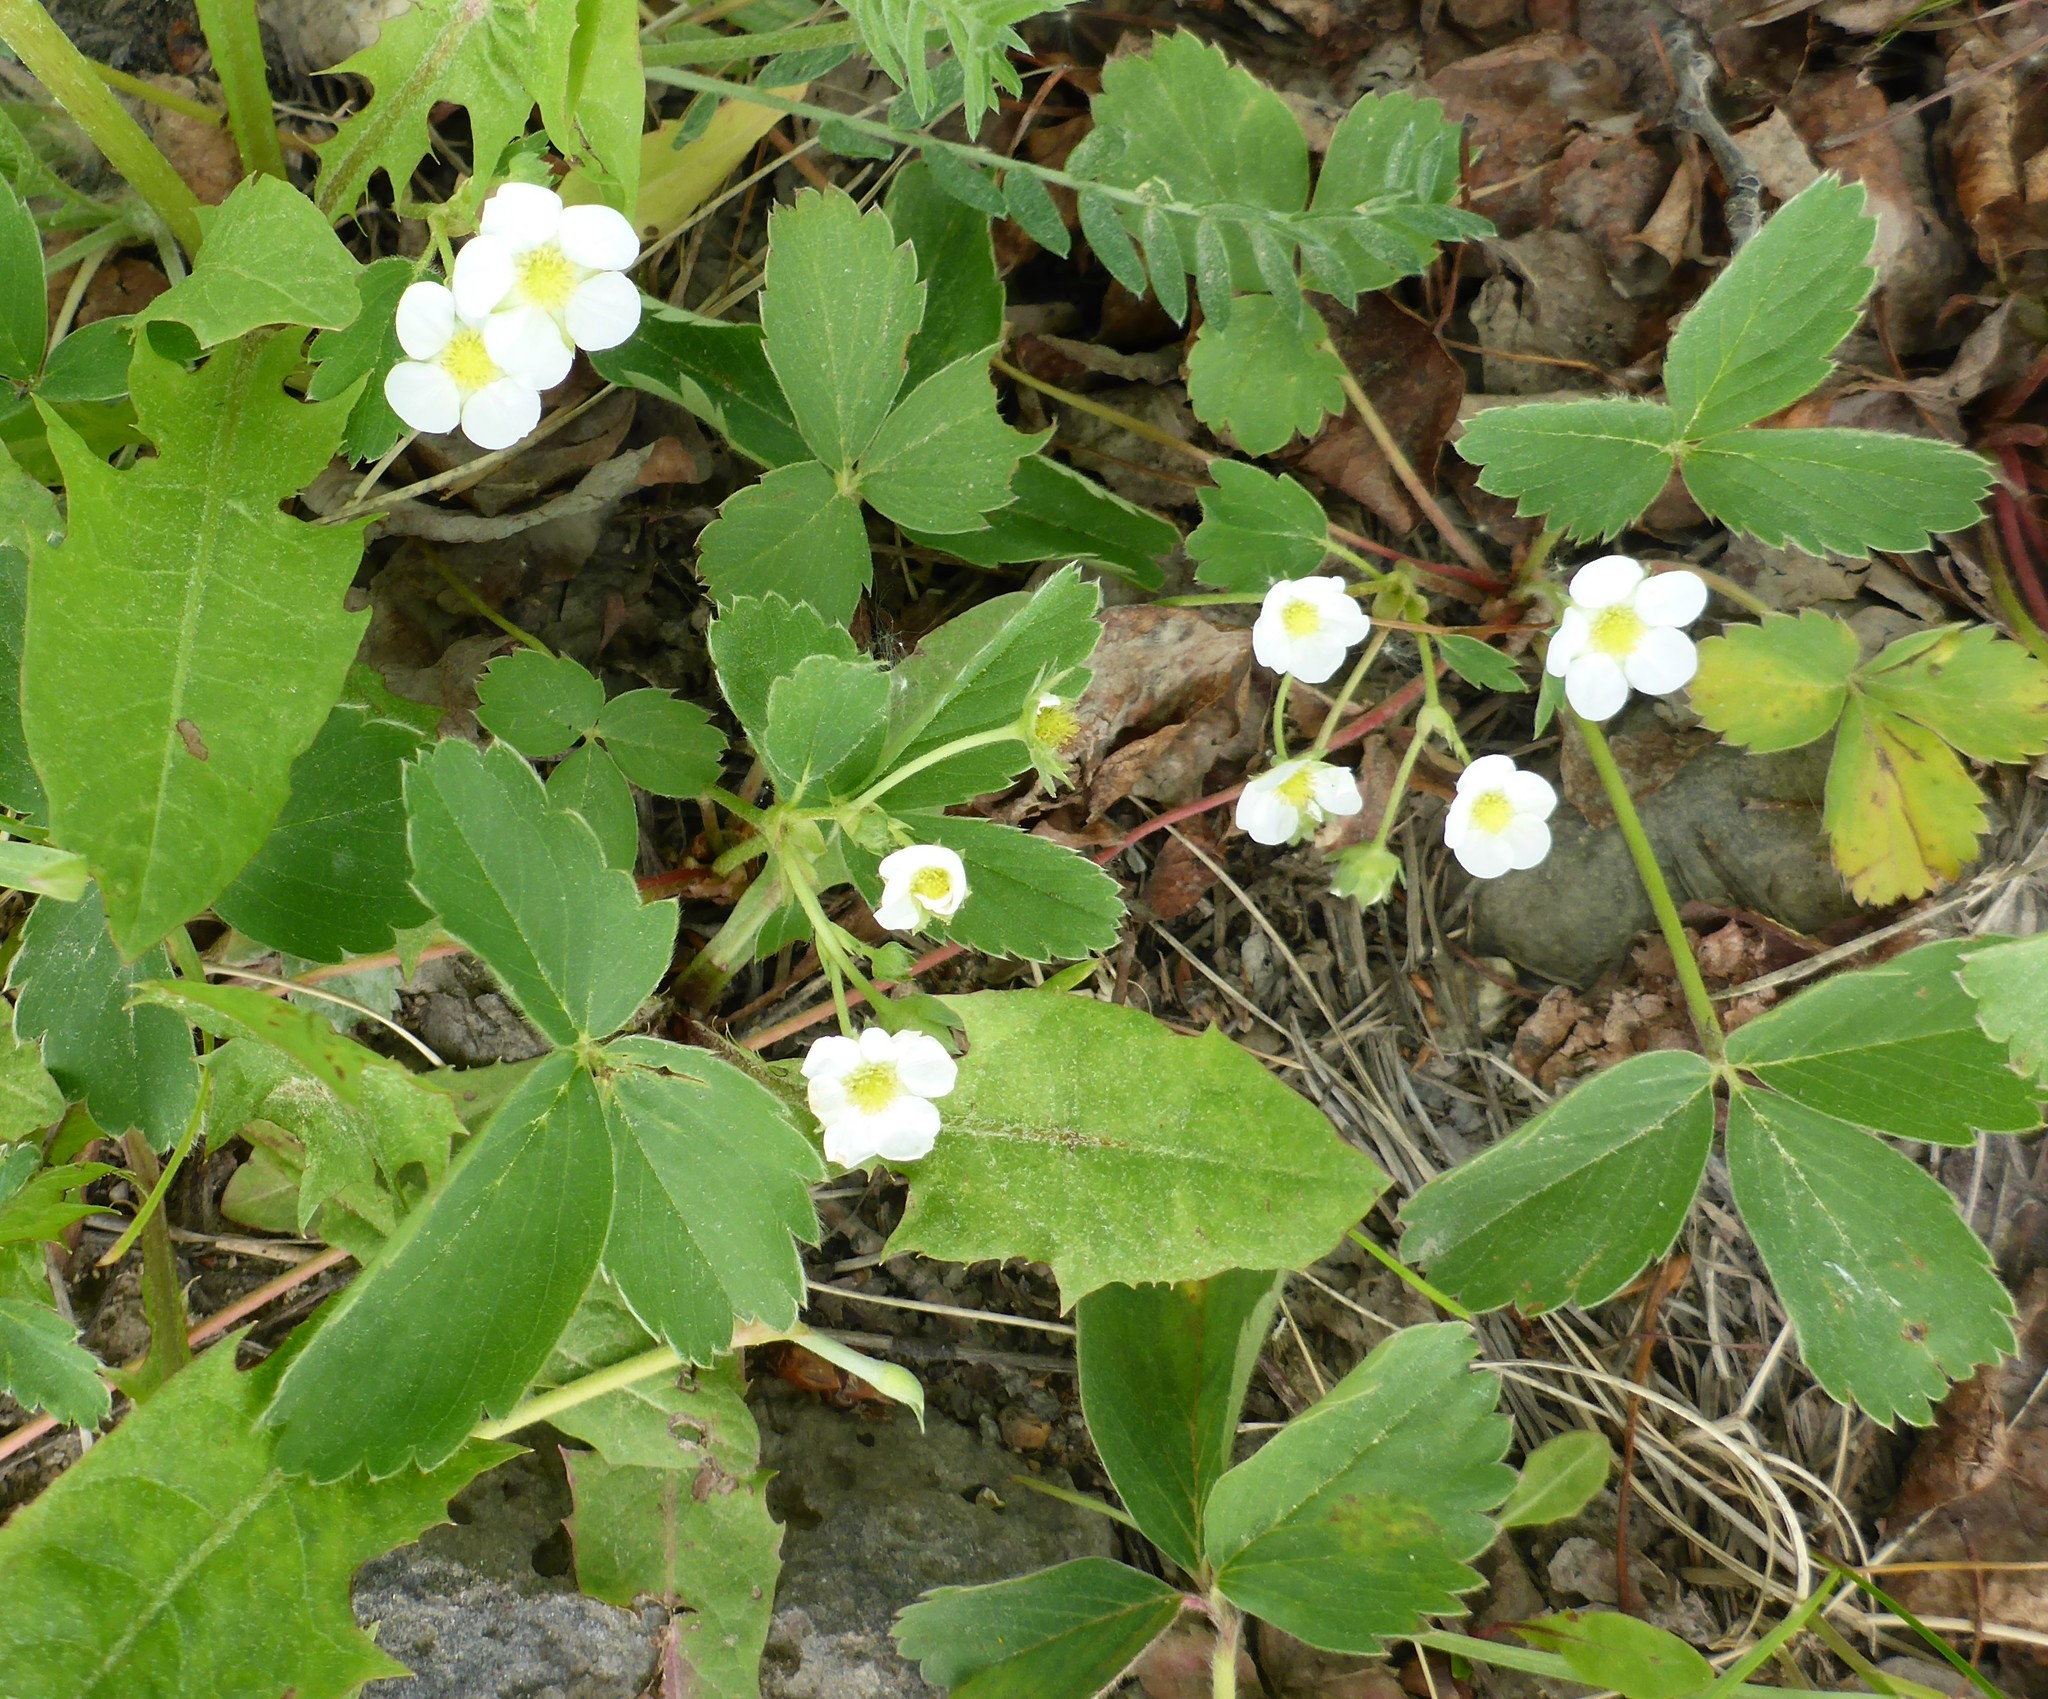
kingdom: Plantae
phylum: Tracheophyta
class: Magnoliopsida
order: Rosales
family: Rosaceae
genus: Fragaria
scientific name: Fragaria virginiana
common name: Thickleaved wild strawberry
